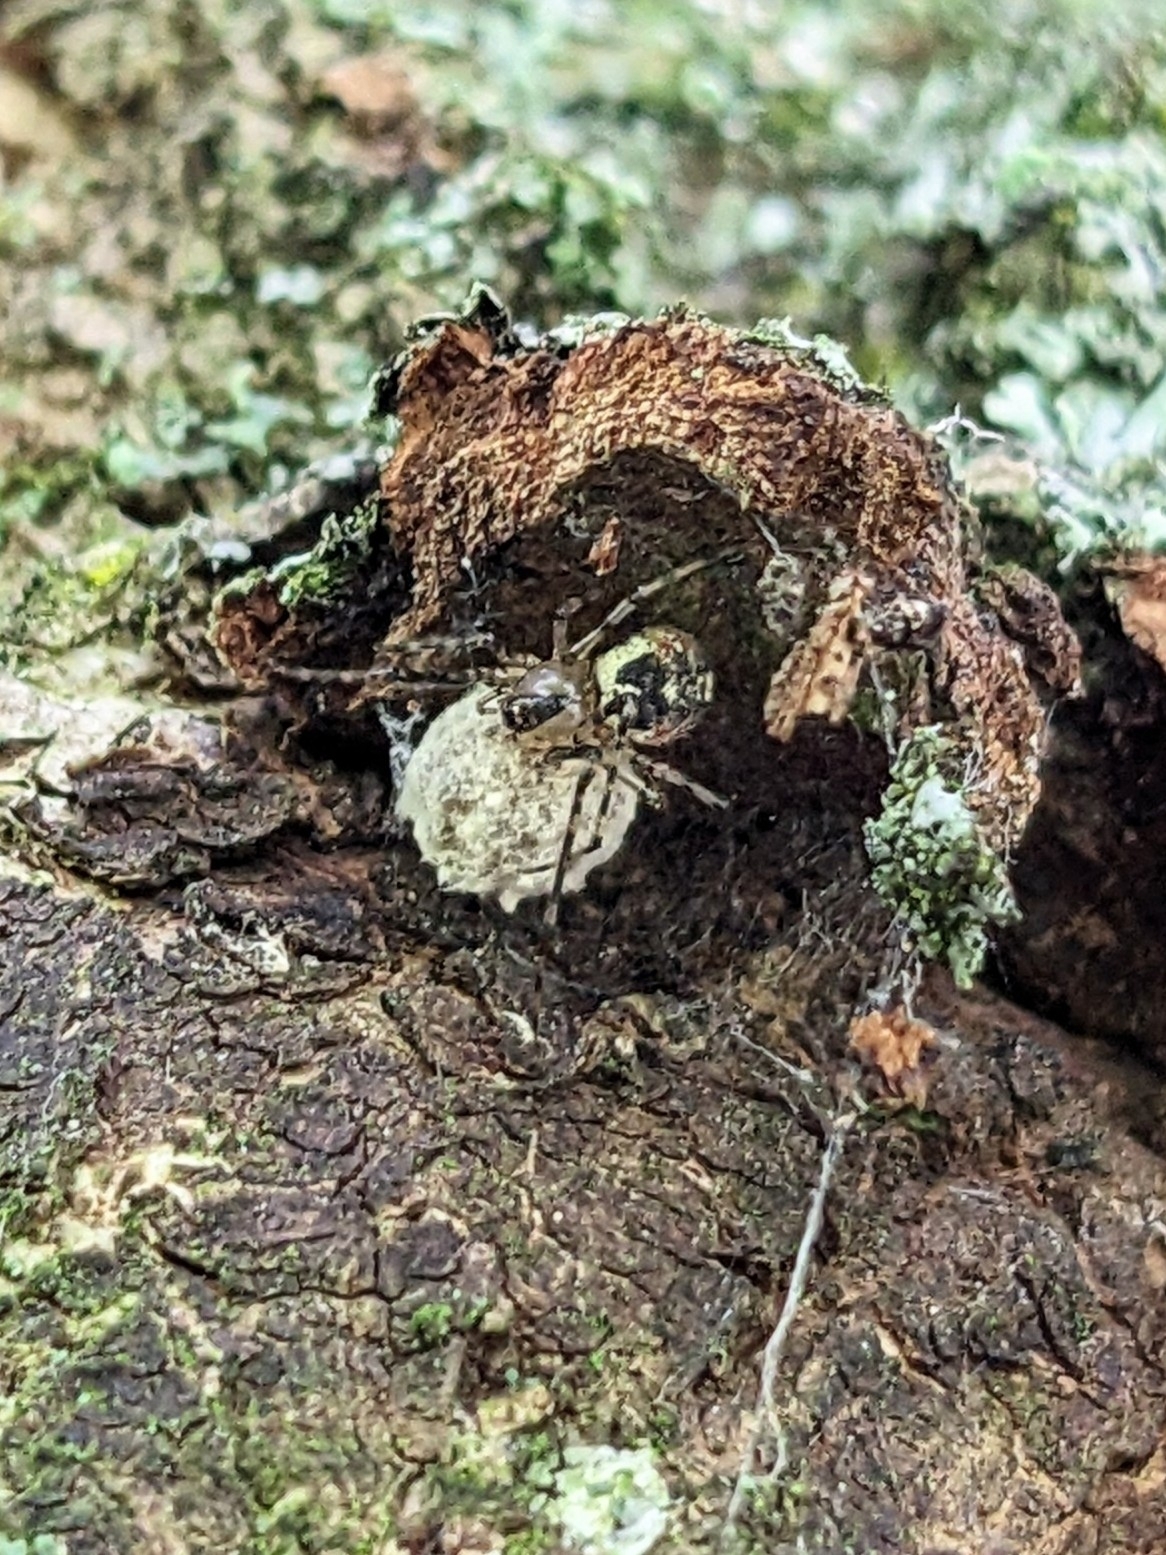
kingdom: Animalia
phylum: Arthropoda
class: Arachnida
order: Araneae
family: Theridiidae
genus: Platnickina
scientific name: Platnickina tincta
